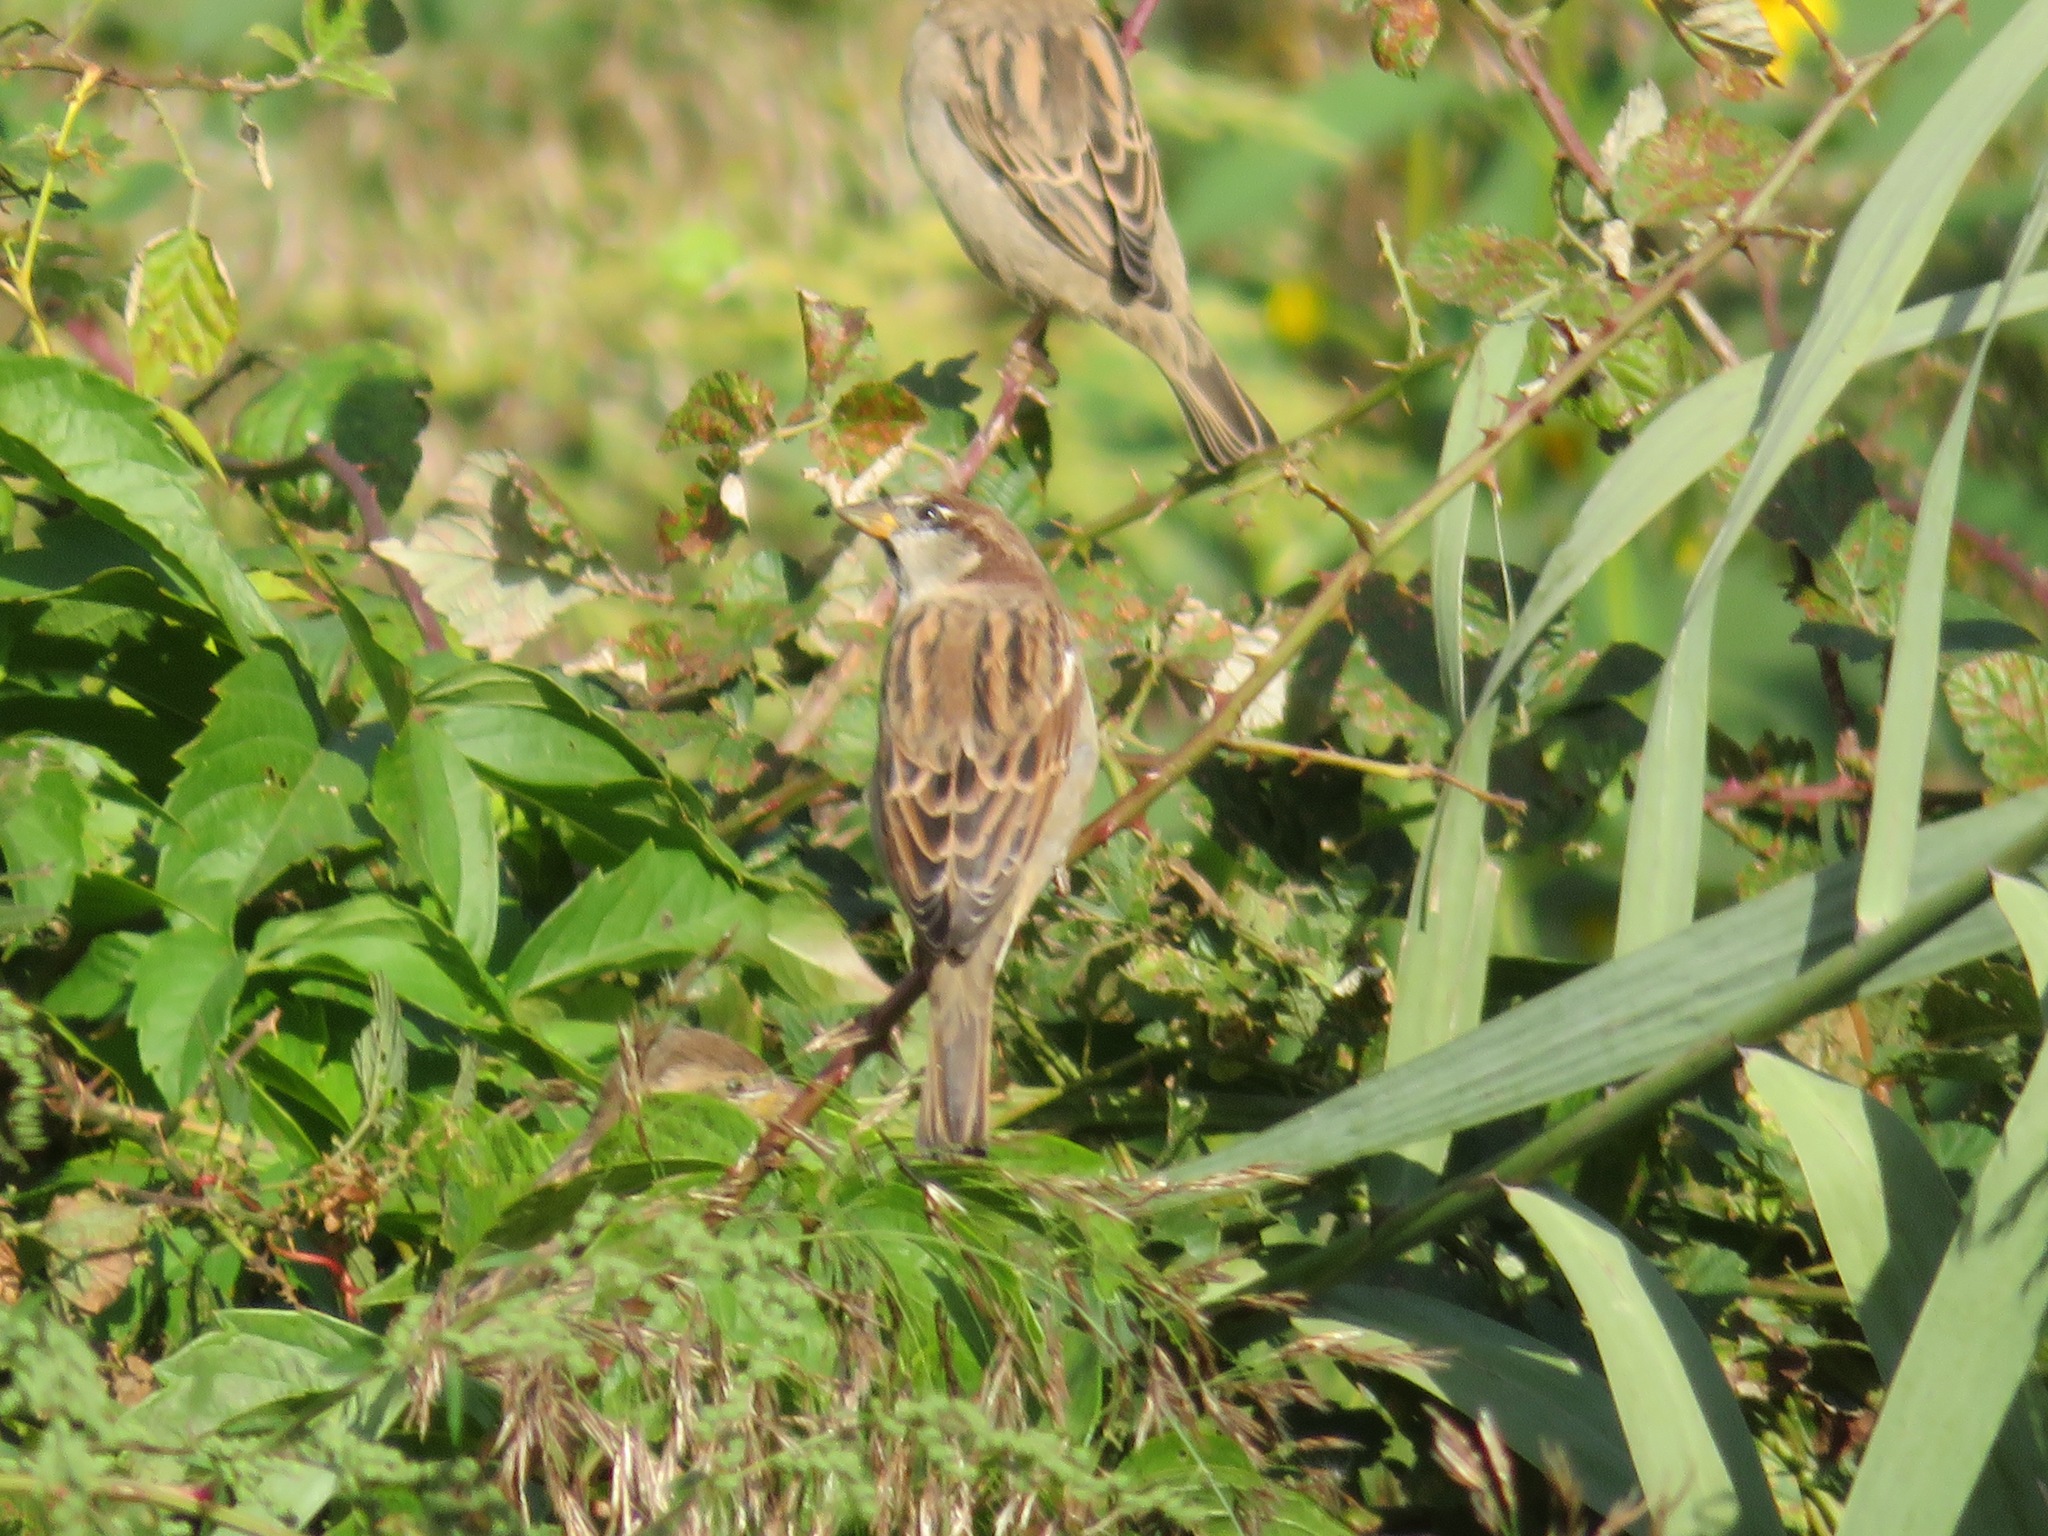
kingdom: Animalia
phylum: Chordata
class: Aves
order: Passeriformes
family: Passeridae
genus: Passer
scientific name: Passer italiae
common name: Italian sparrow
